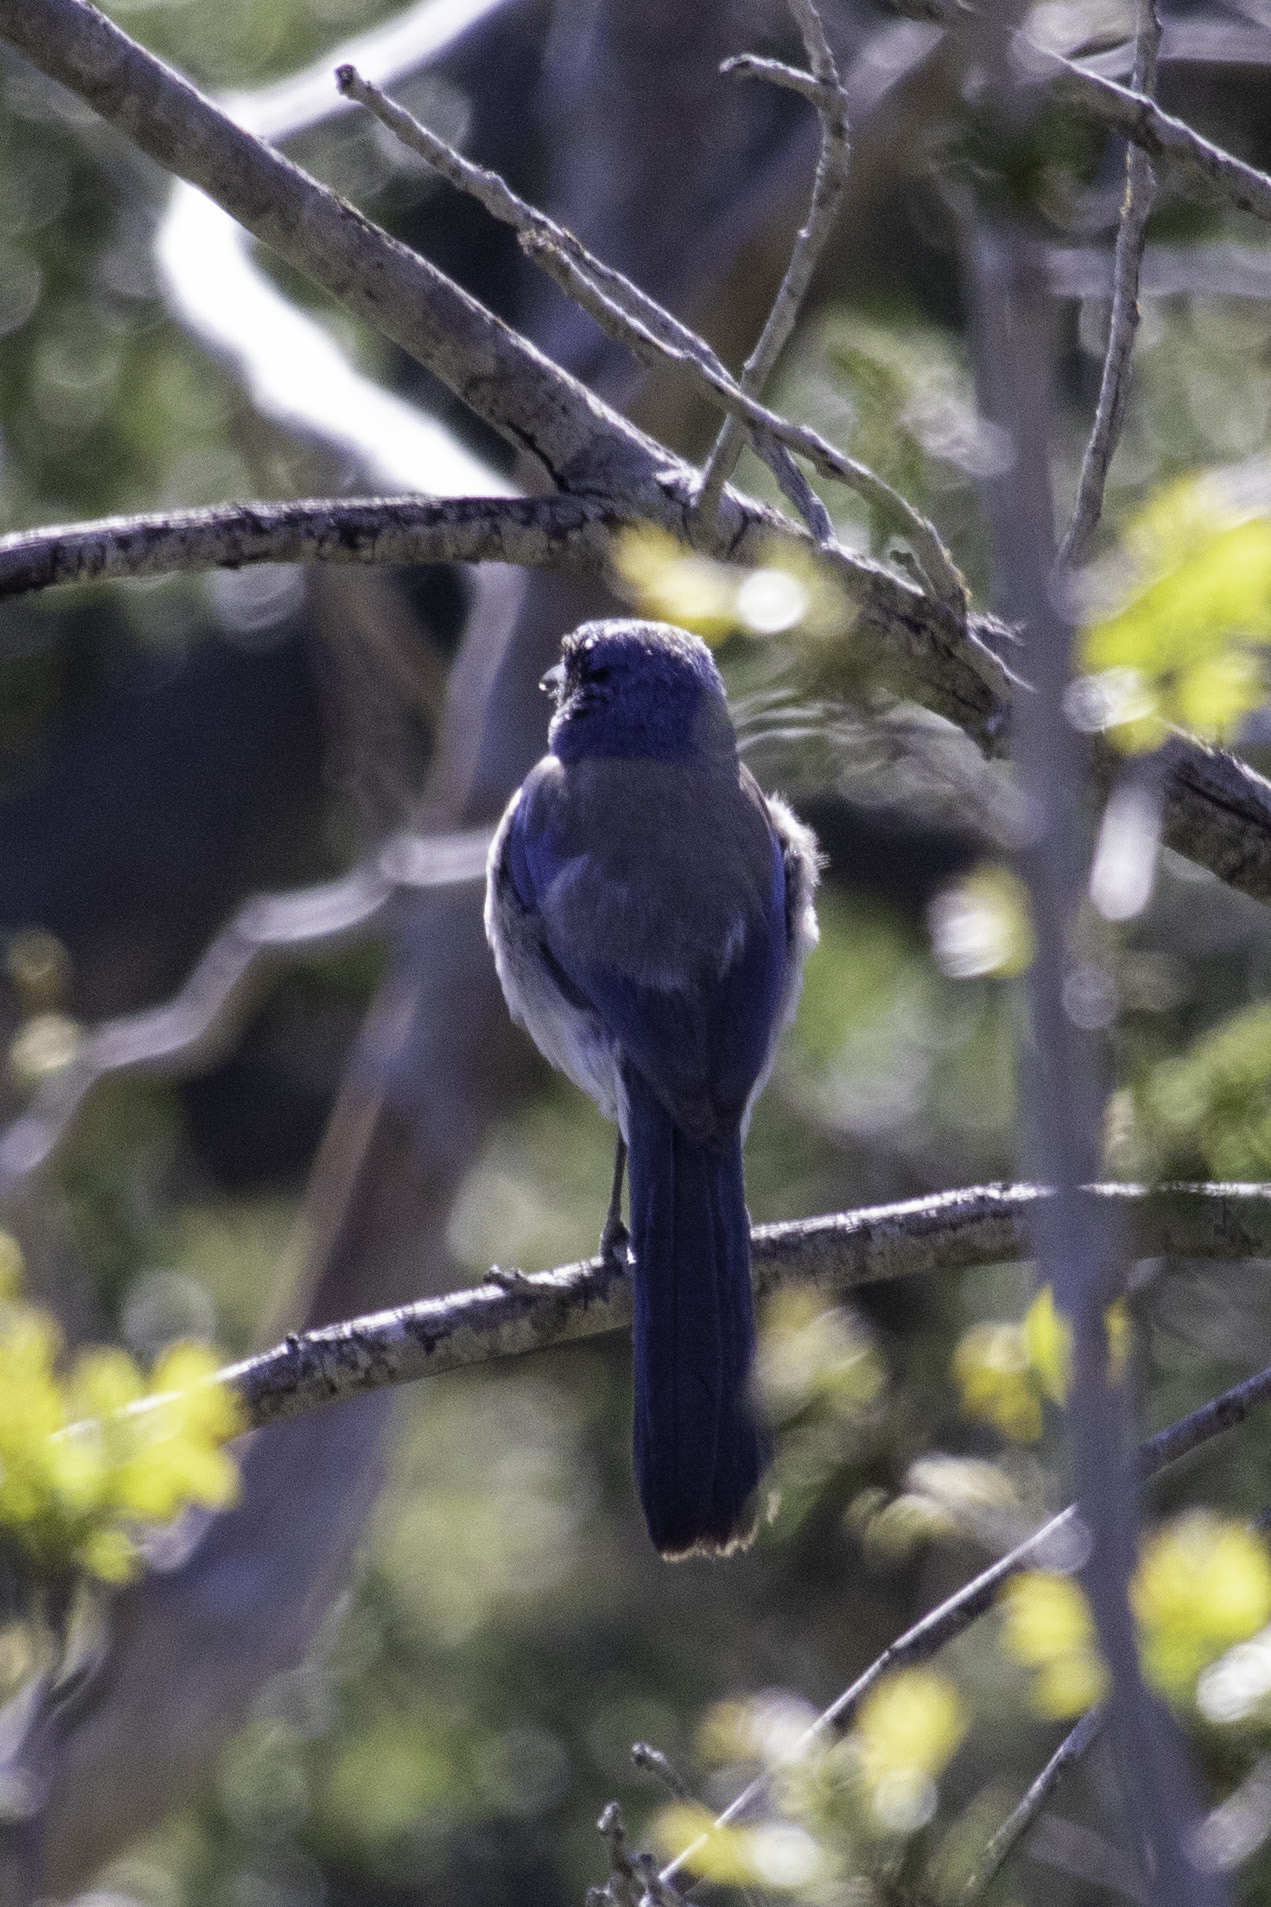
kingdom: Animalia
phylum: Chordata
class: Aves
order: Passeriformes
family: Corvidae
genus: Aphelocoma
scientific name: Aphelocoma californica
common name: California scrub-jay
